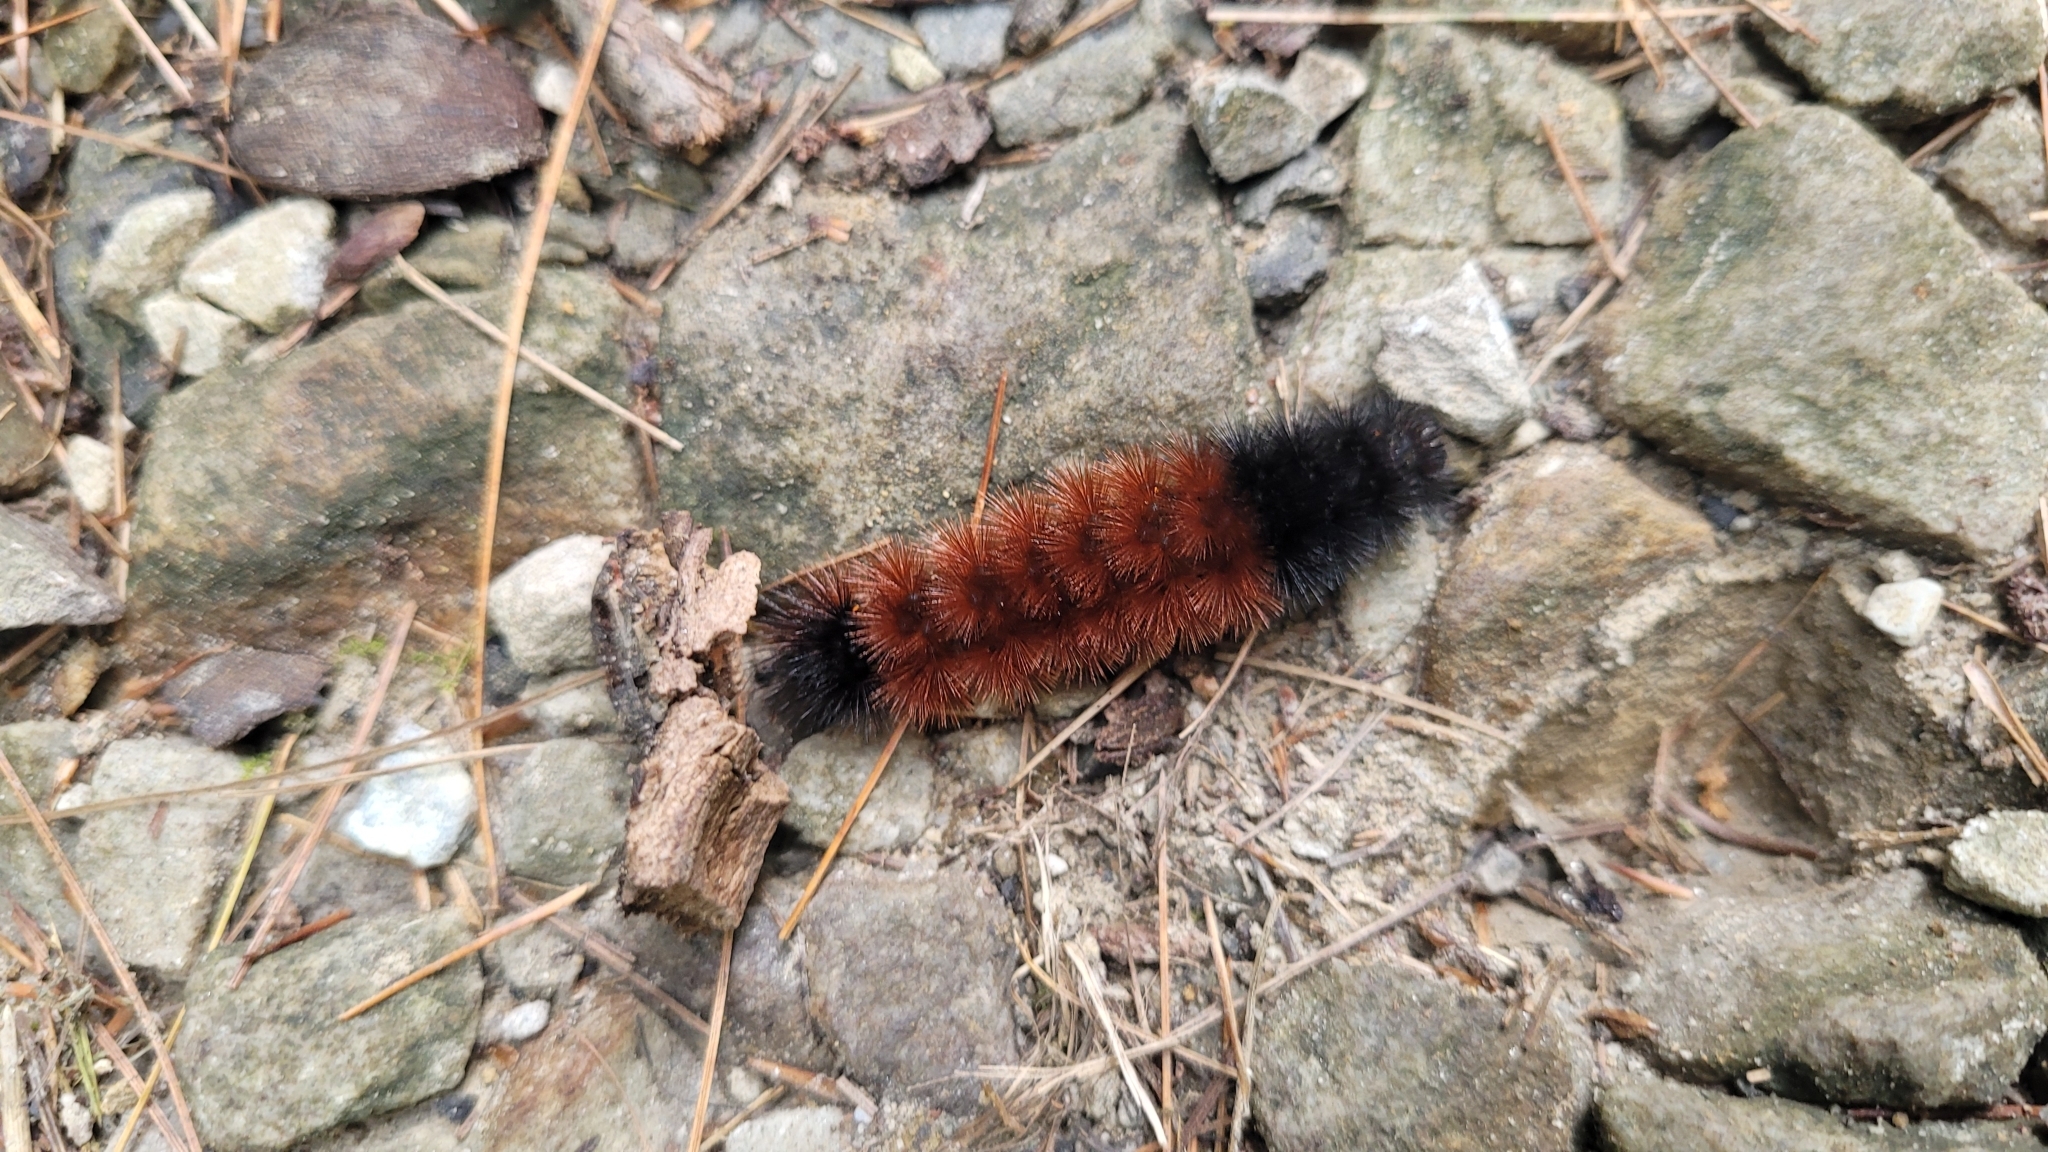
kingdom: Animalia
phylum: Arthropoda
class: Insecta
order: Lepidoptera
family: Erebidae
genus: Pyrrharctia
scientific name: Pyrrharctia isabella
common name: Isabella tiger moth
